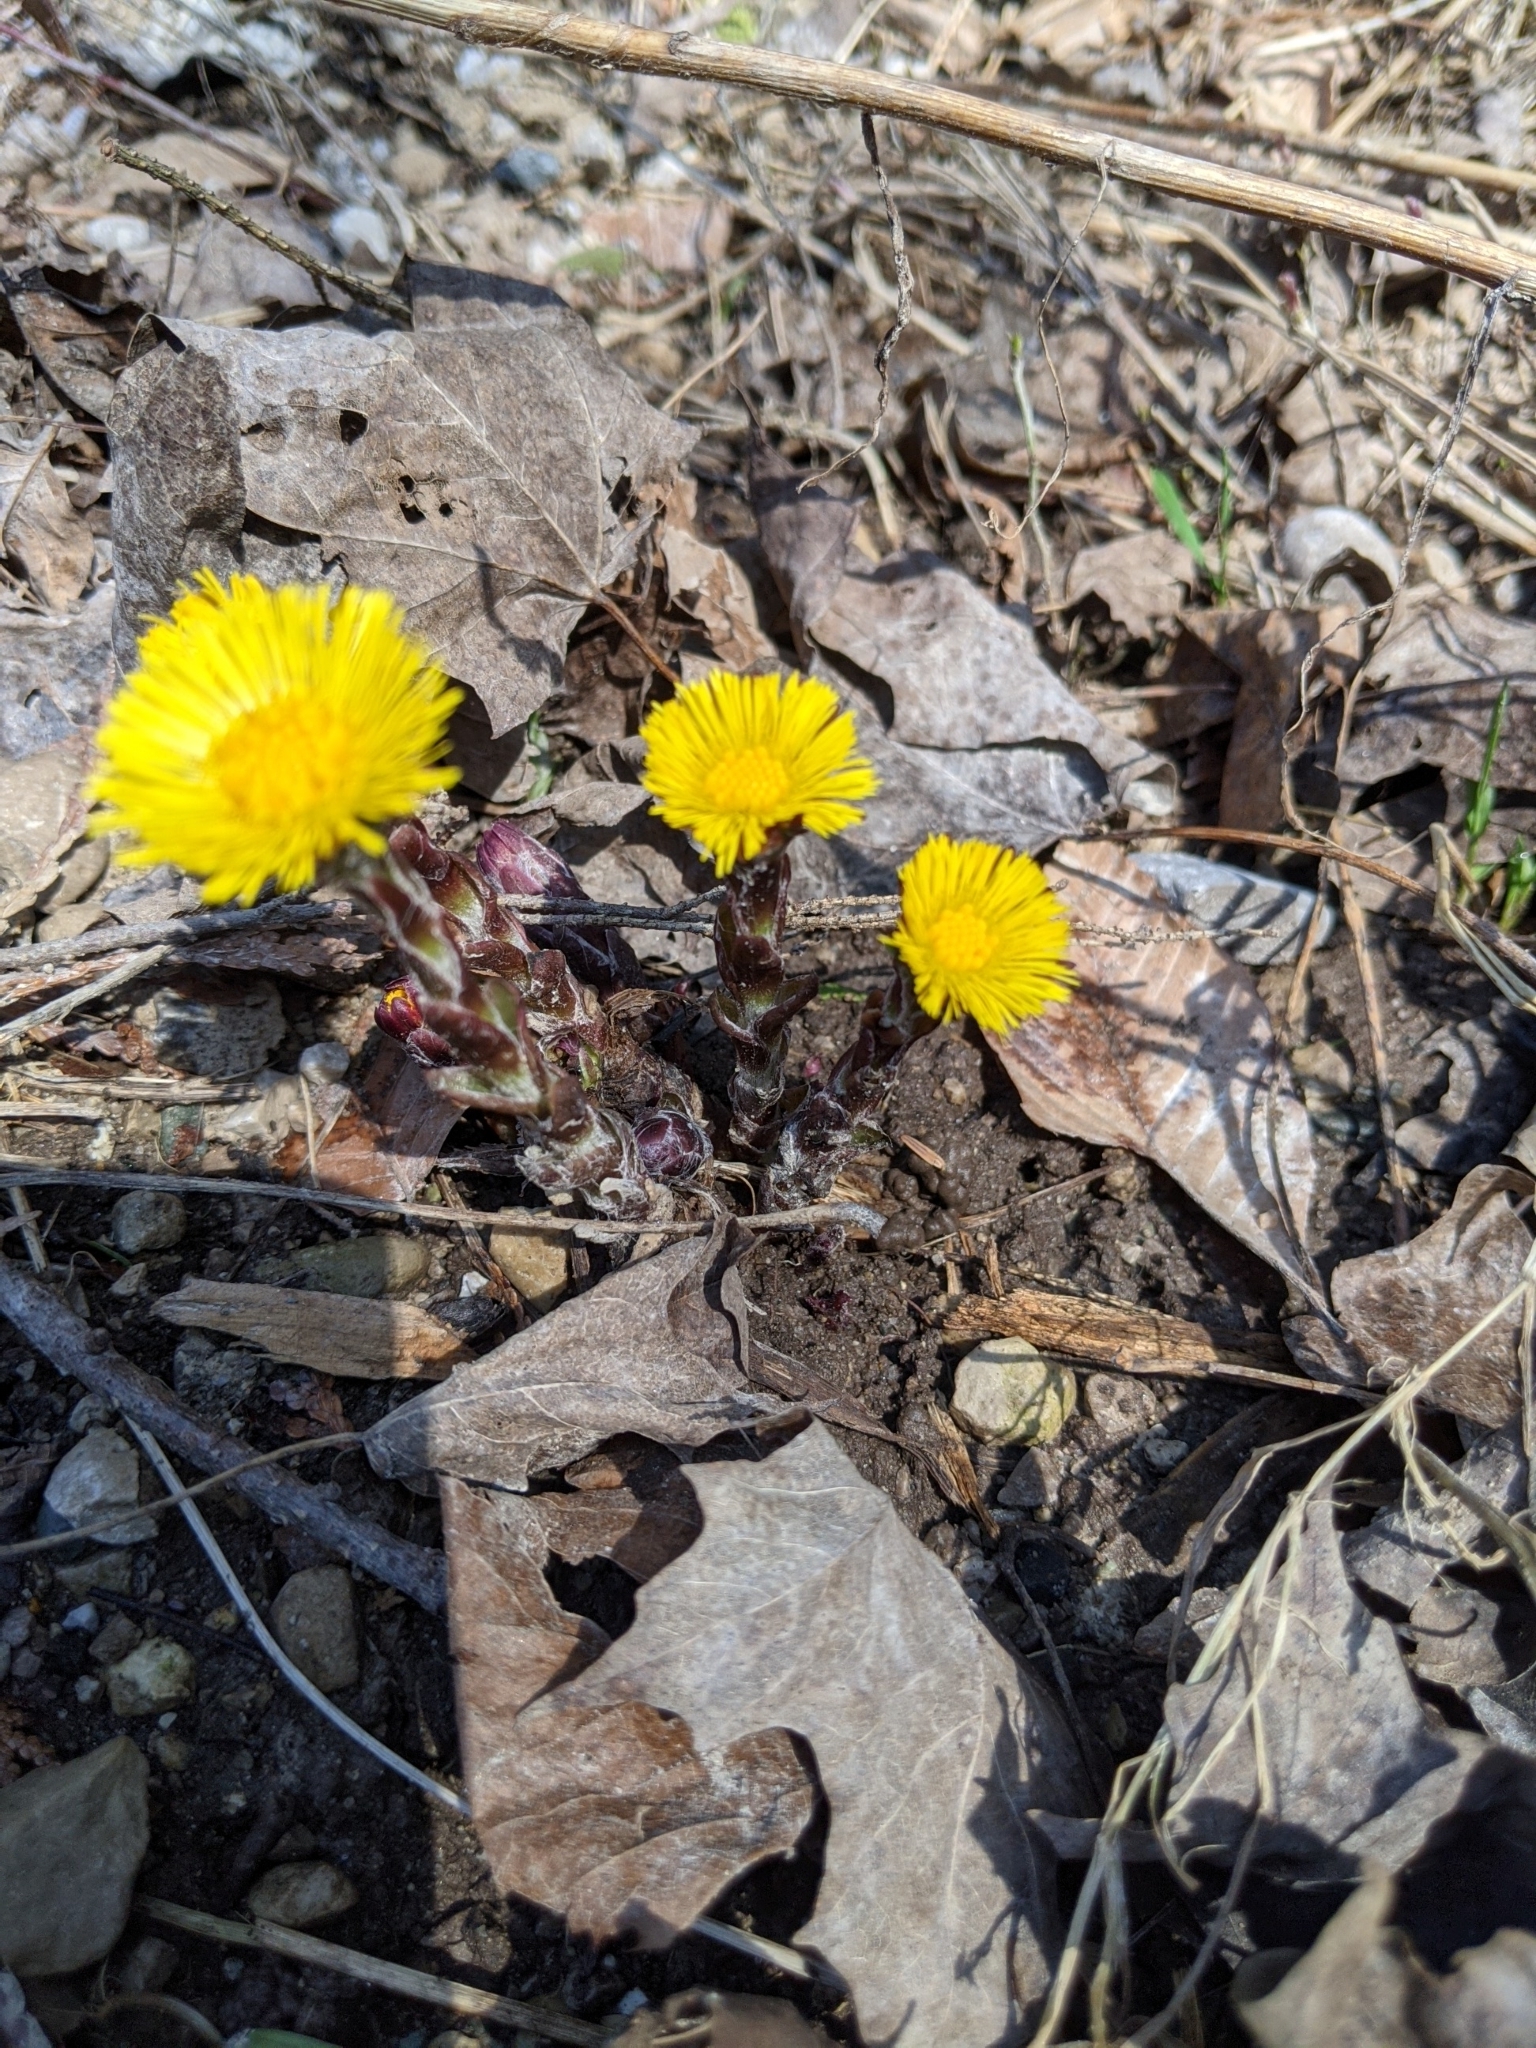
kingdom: Plantae
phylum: Tracheophyta
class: Magnoliopsida
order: Asterales
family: Asteraceae
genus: Tussilago
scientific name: Tussilago farfara
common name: Coltsfoot
